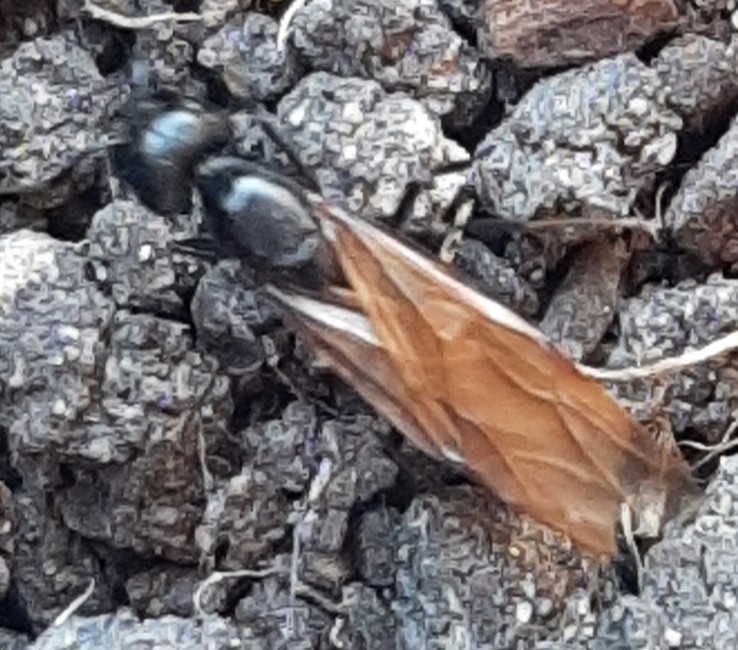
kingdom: Animalia
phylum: Arthropoda
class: Insecta
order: Hymenoptera
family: Formicidae
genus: Camponotus
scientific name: Camponotus pennsylvanicus
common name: Black carpenter ant
